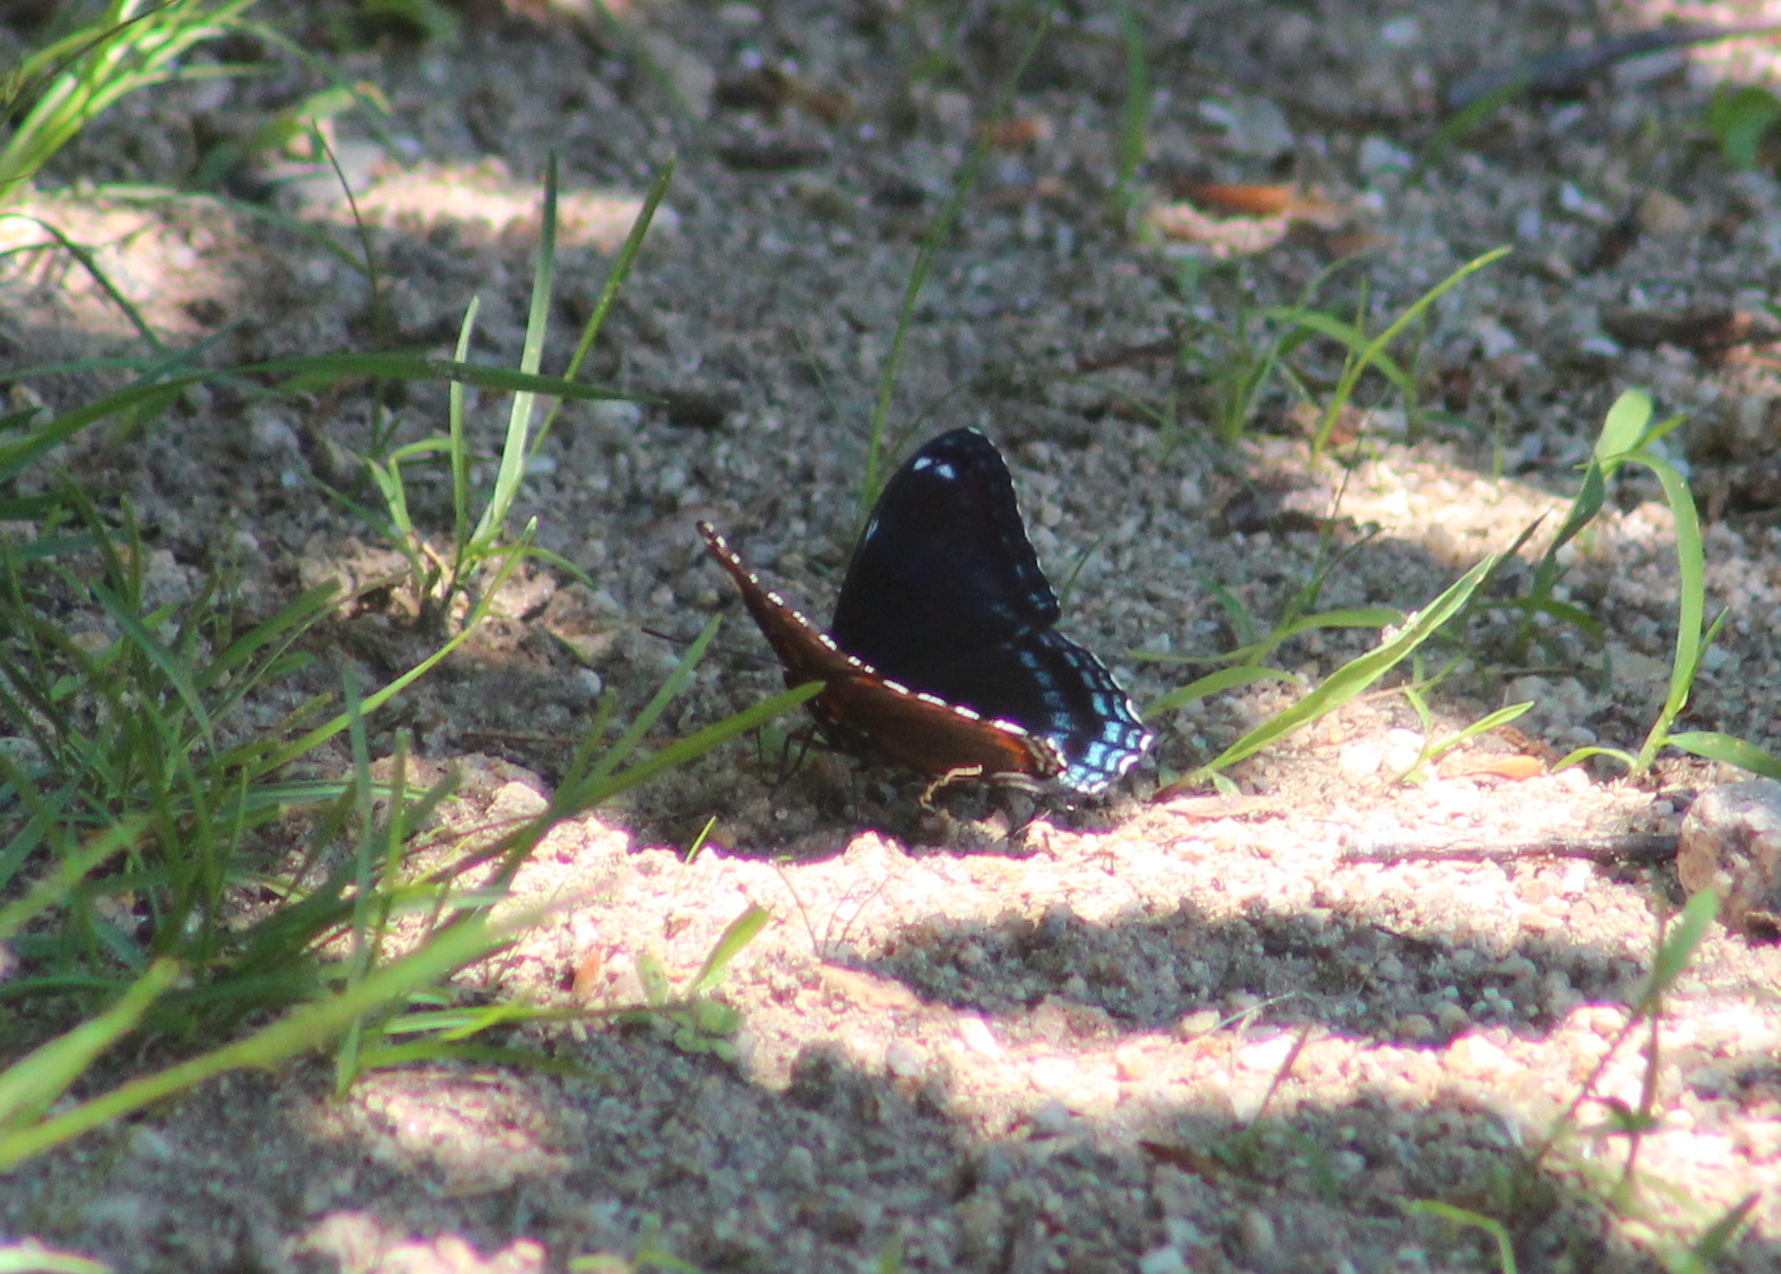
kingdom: Animalia
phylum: Arthropoda
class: Insecta
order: Lepidoptera
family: Nymphalidae
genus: Limenitis
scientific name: Limenitis arthemis
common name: Red-spotted admiral
